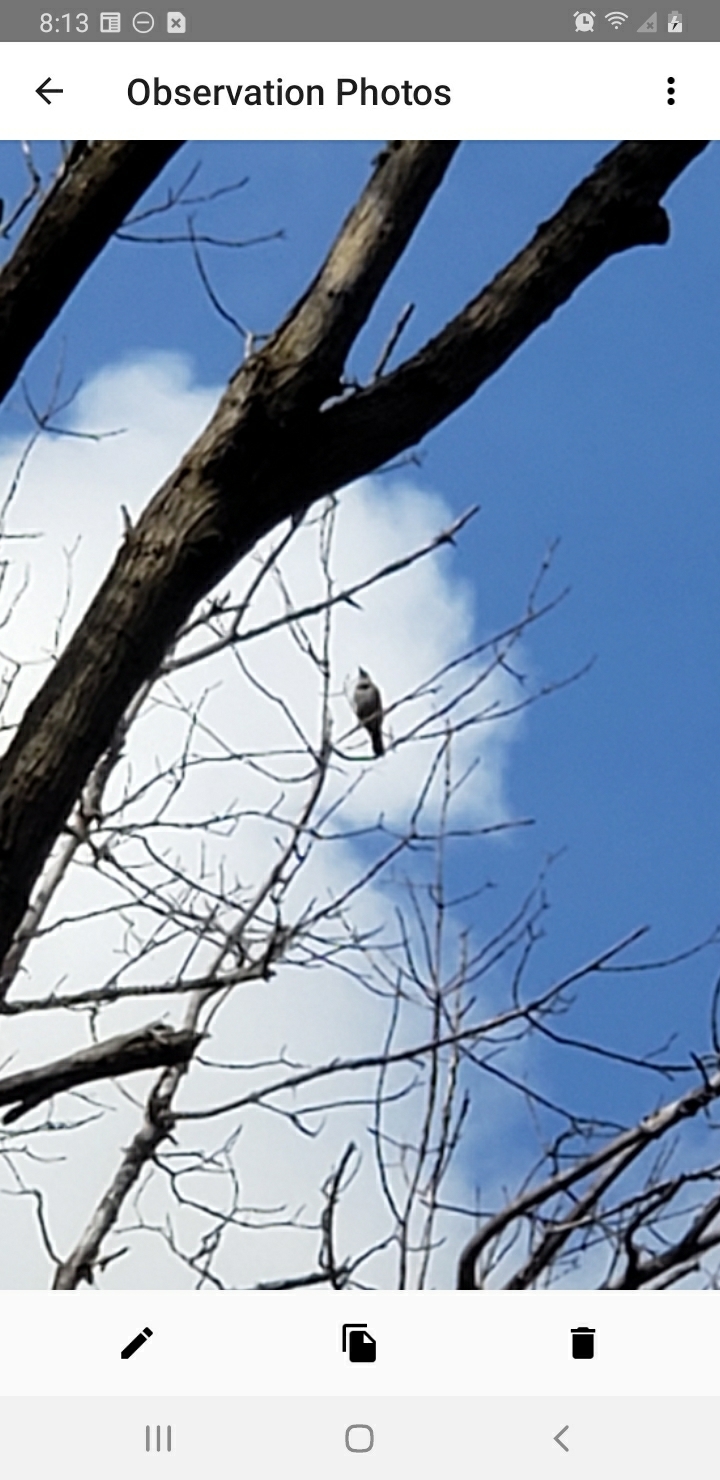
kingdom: Animalia
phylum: Chordata
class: Aves
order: Piciformes
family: Picidae
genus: Colaptes
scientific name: Colaptes auratus
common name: Northern flicker
